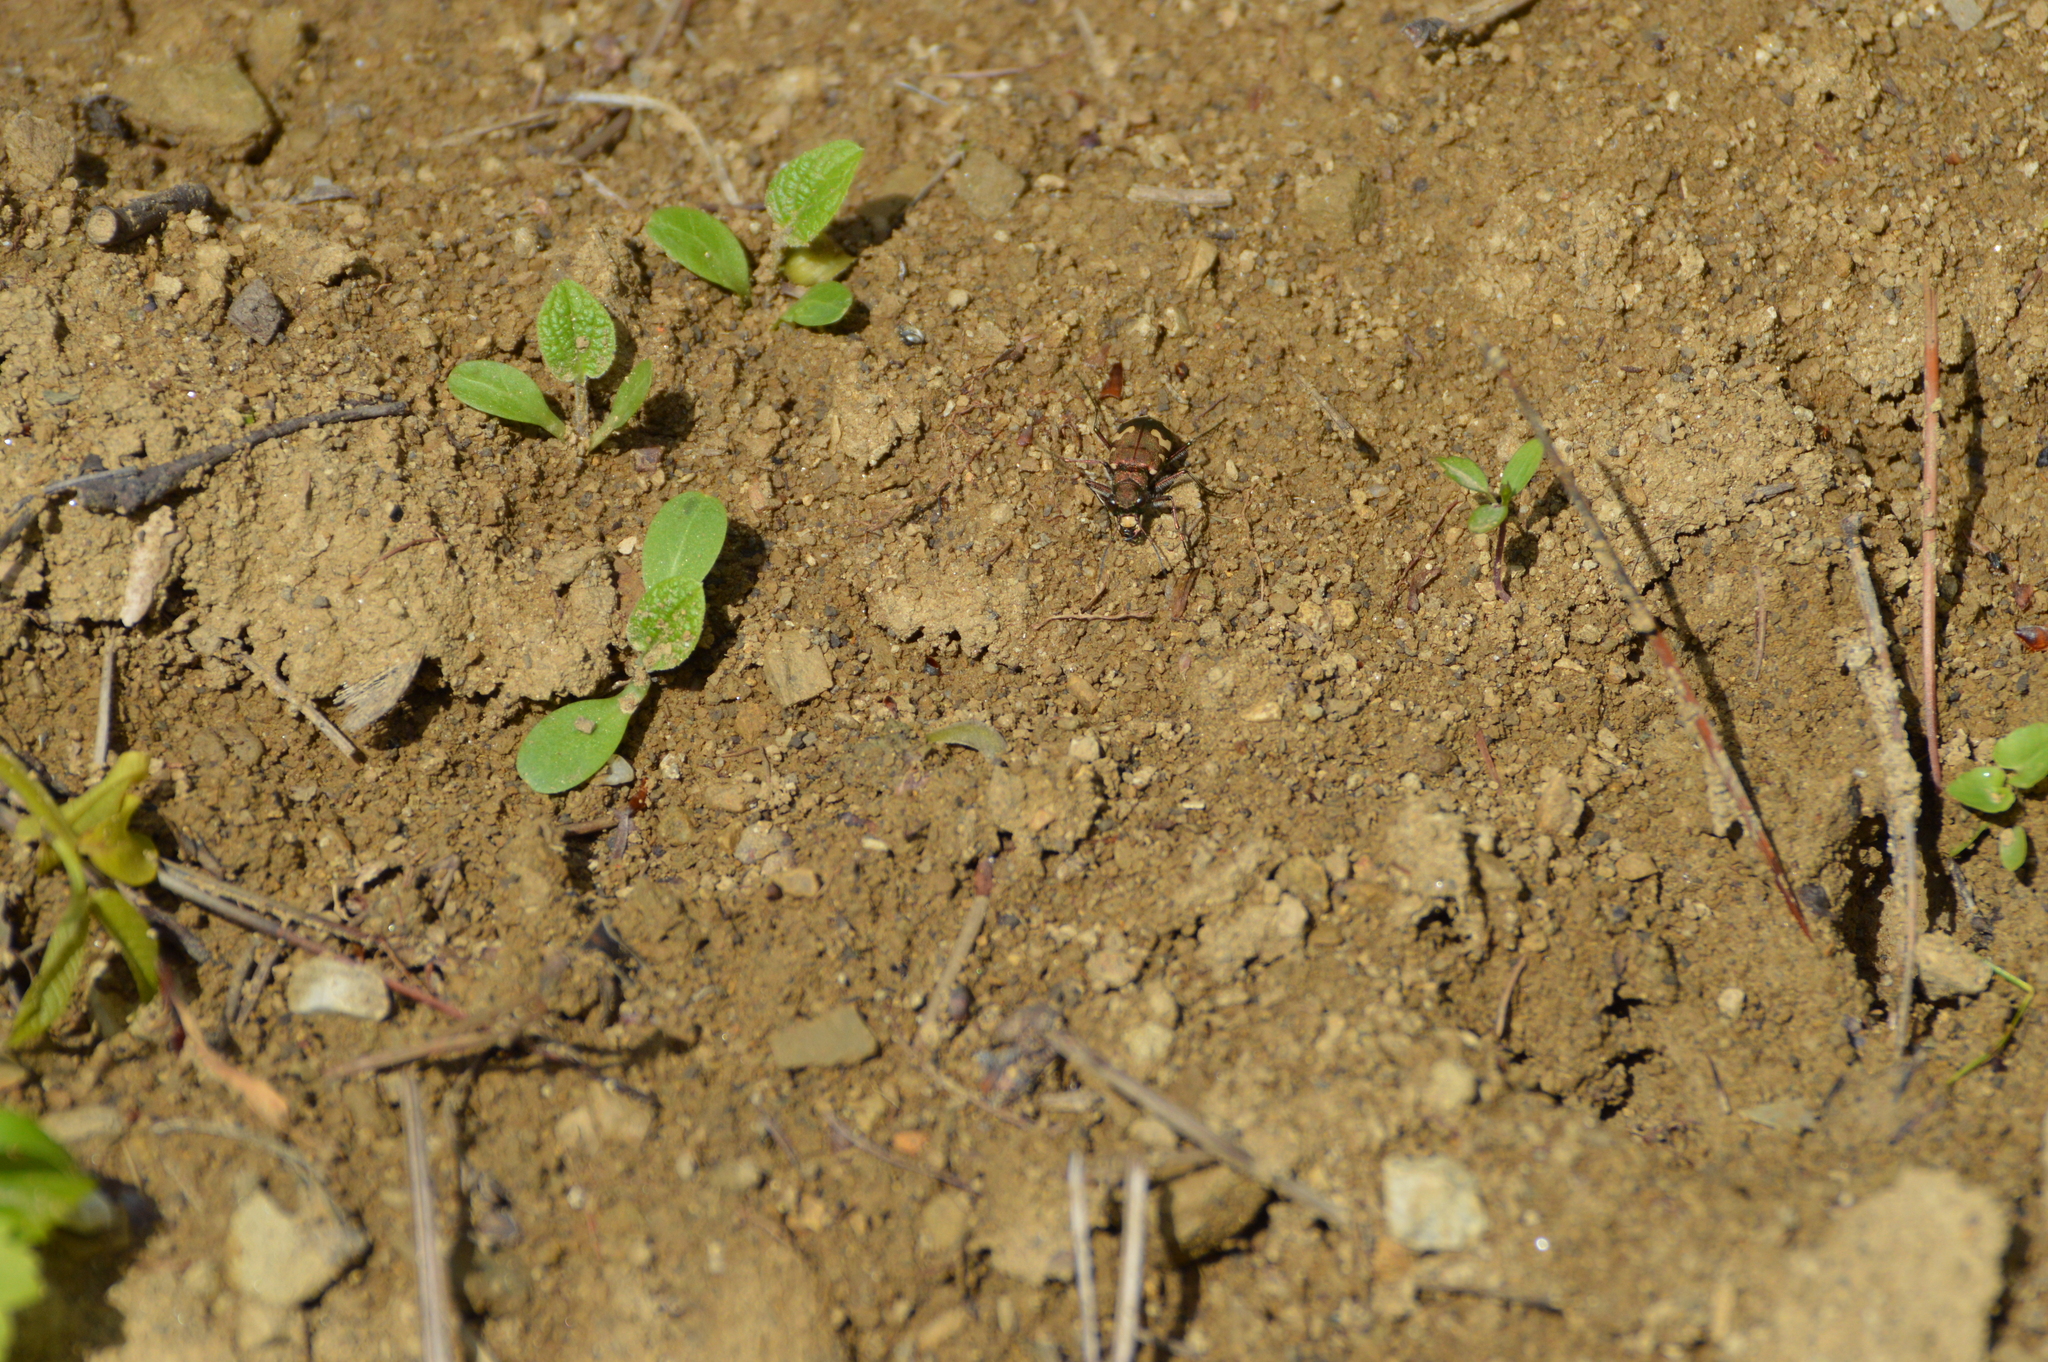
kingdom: Animalia
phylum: Arthropoda
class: Insecta
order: Coleoptera
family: Carabidae
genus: Cicindela
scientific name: Cicindela sylvicola
